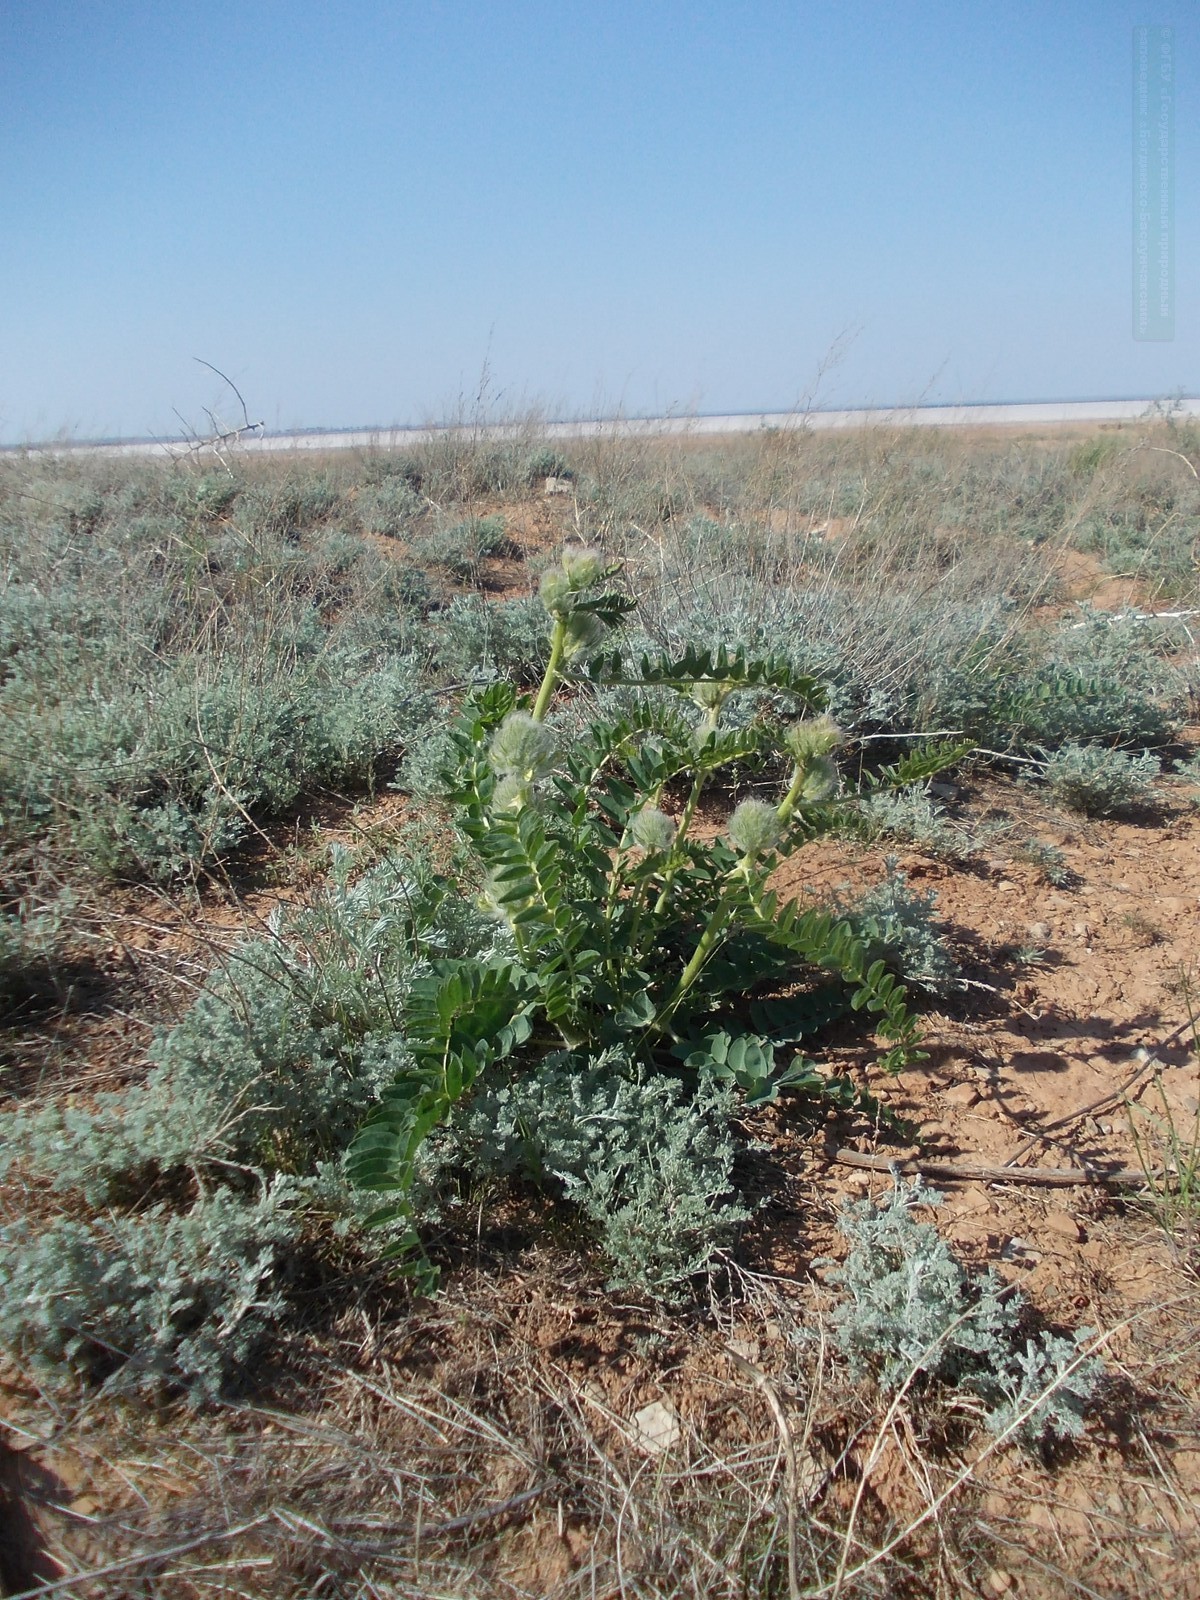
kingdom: Plantae
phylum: Tracheophyta
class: Magnoliopsida
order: Fabales
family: Fabaceae
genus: Astragalus
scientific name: Astragalus vulpinus
